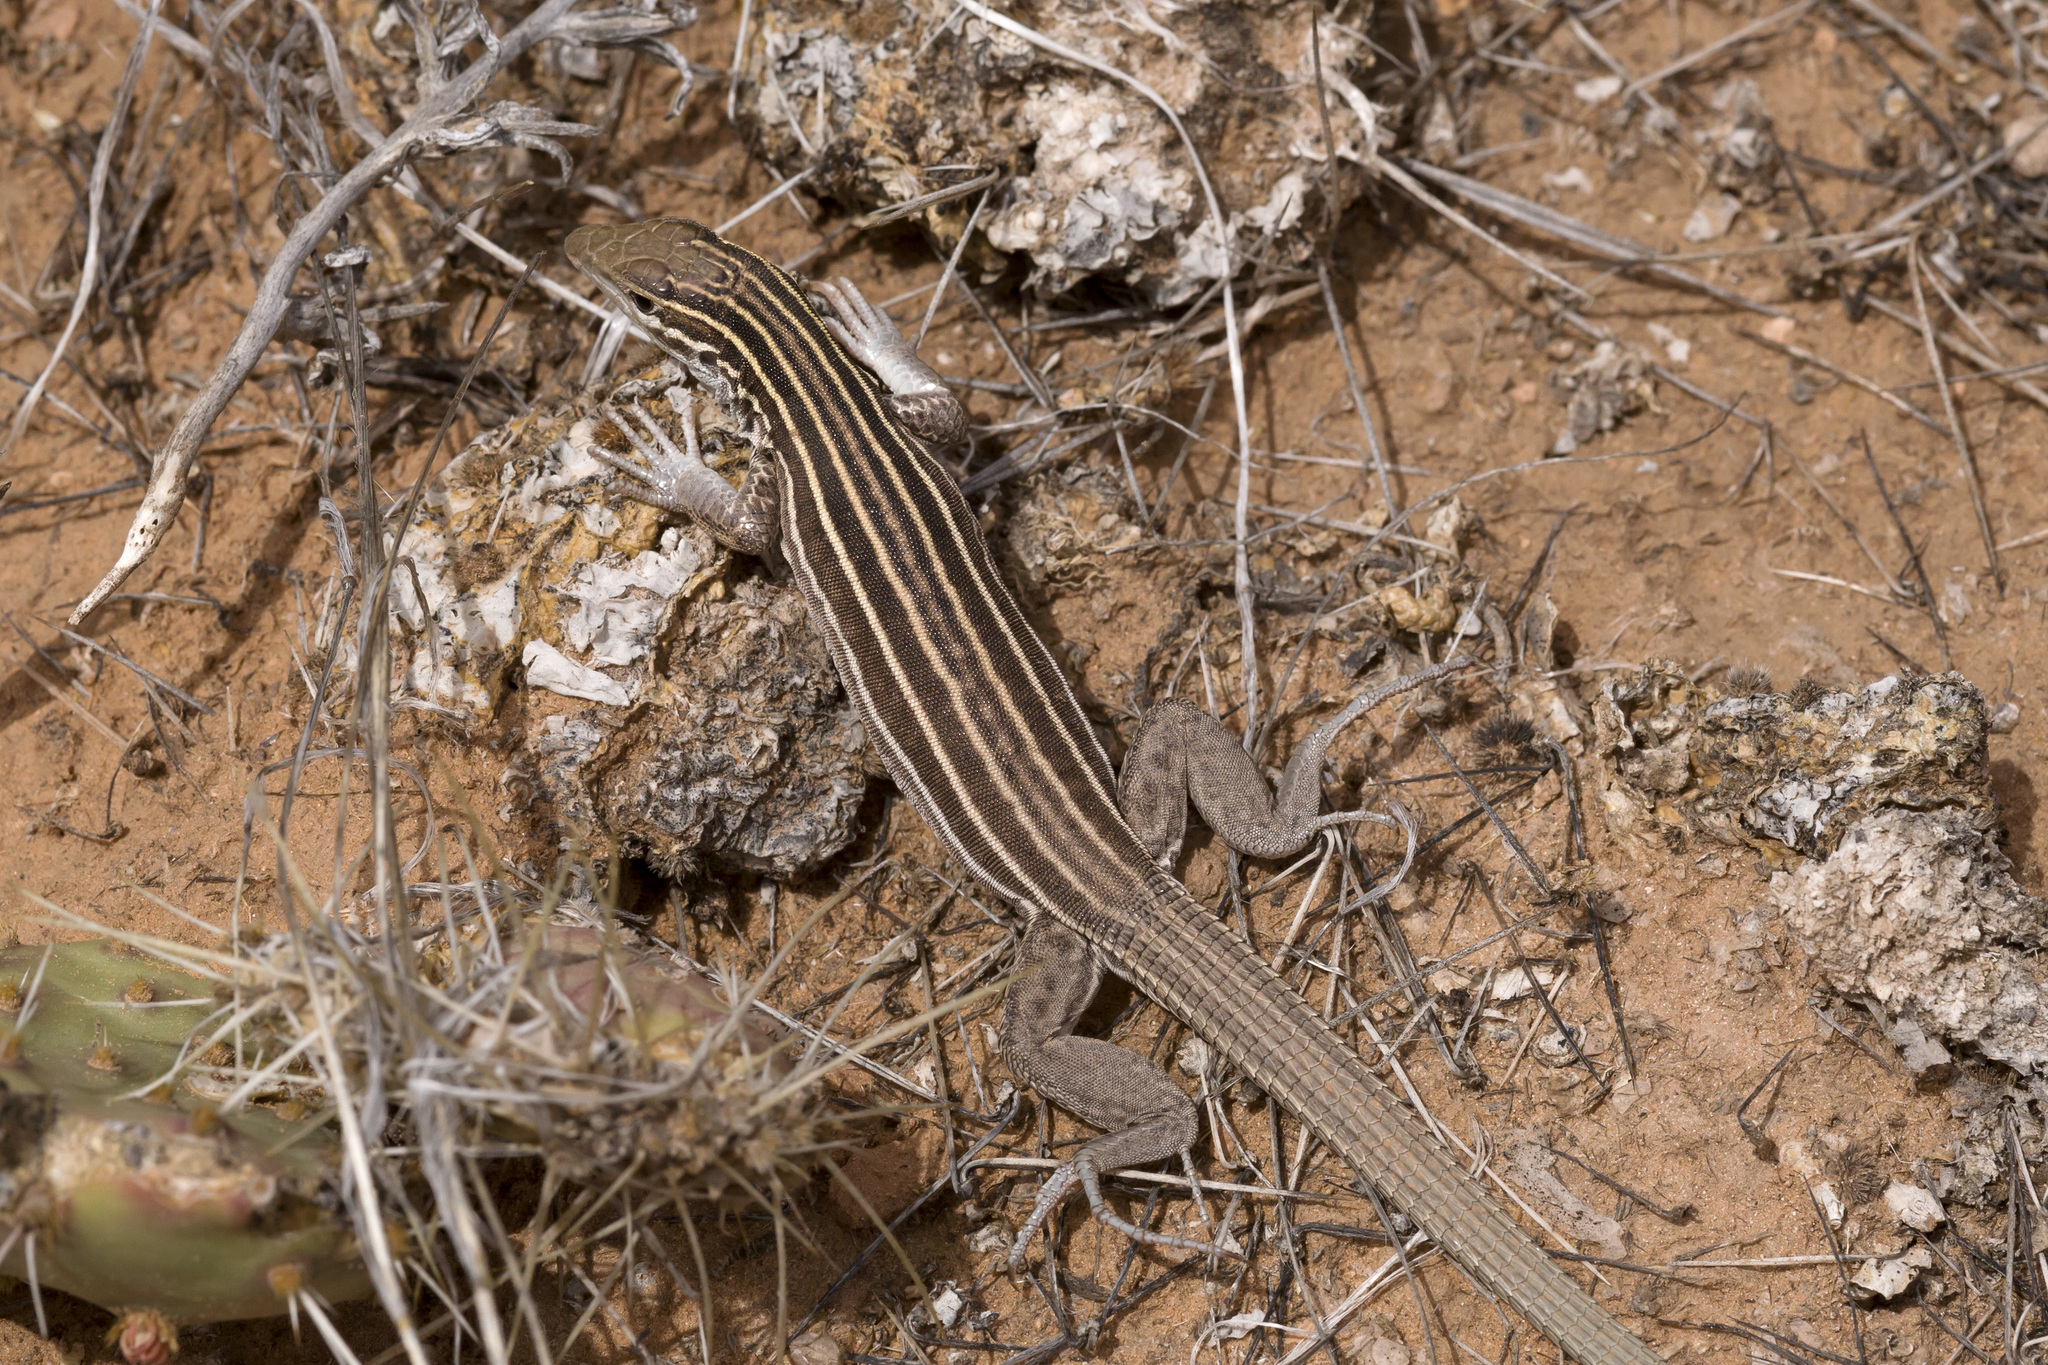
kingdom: Animalia
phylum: Chordata
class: Squamata
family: Teiidae
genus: Aspidoscelis
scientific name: Aspidoscelis velox
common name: Plateau striped whiptail
